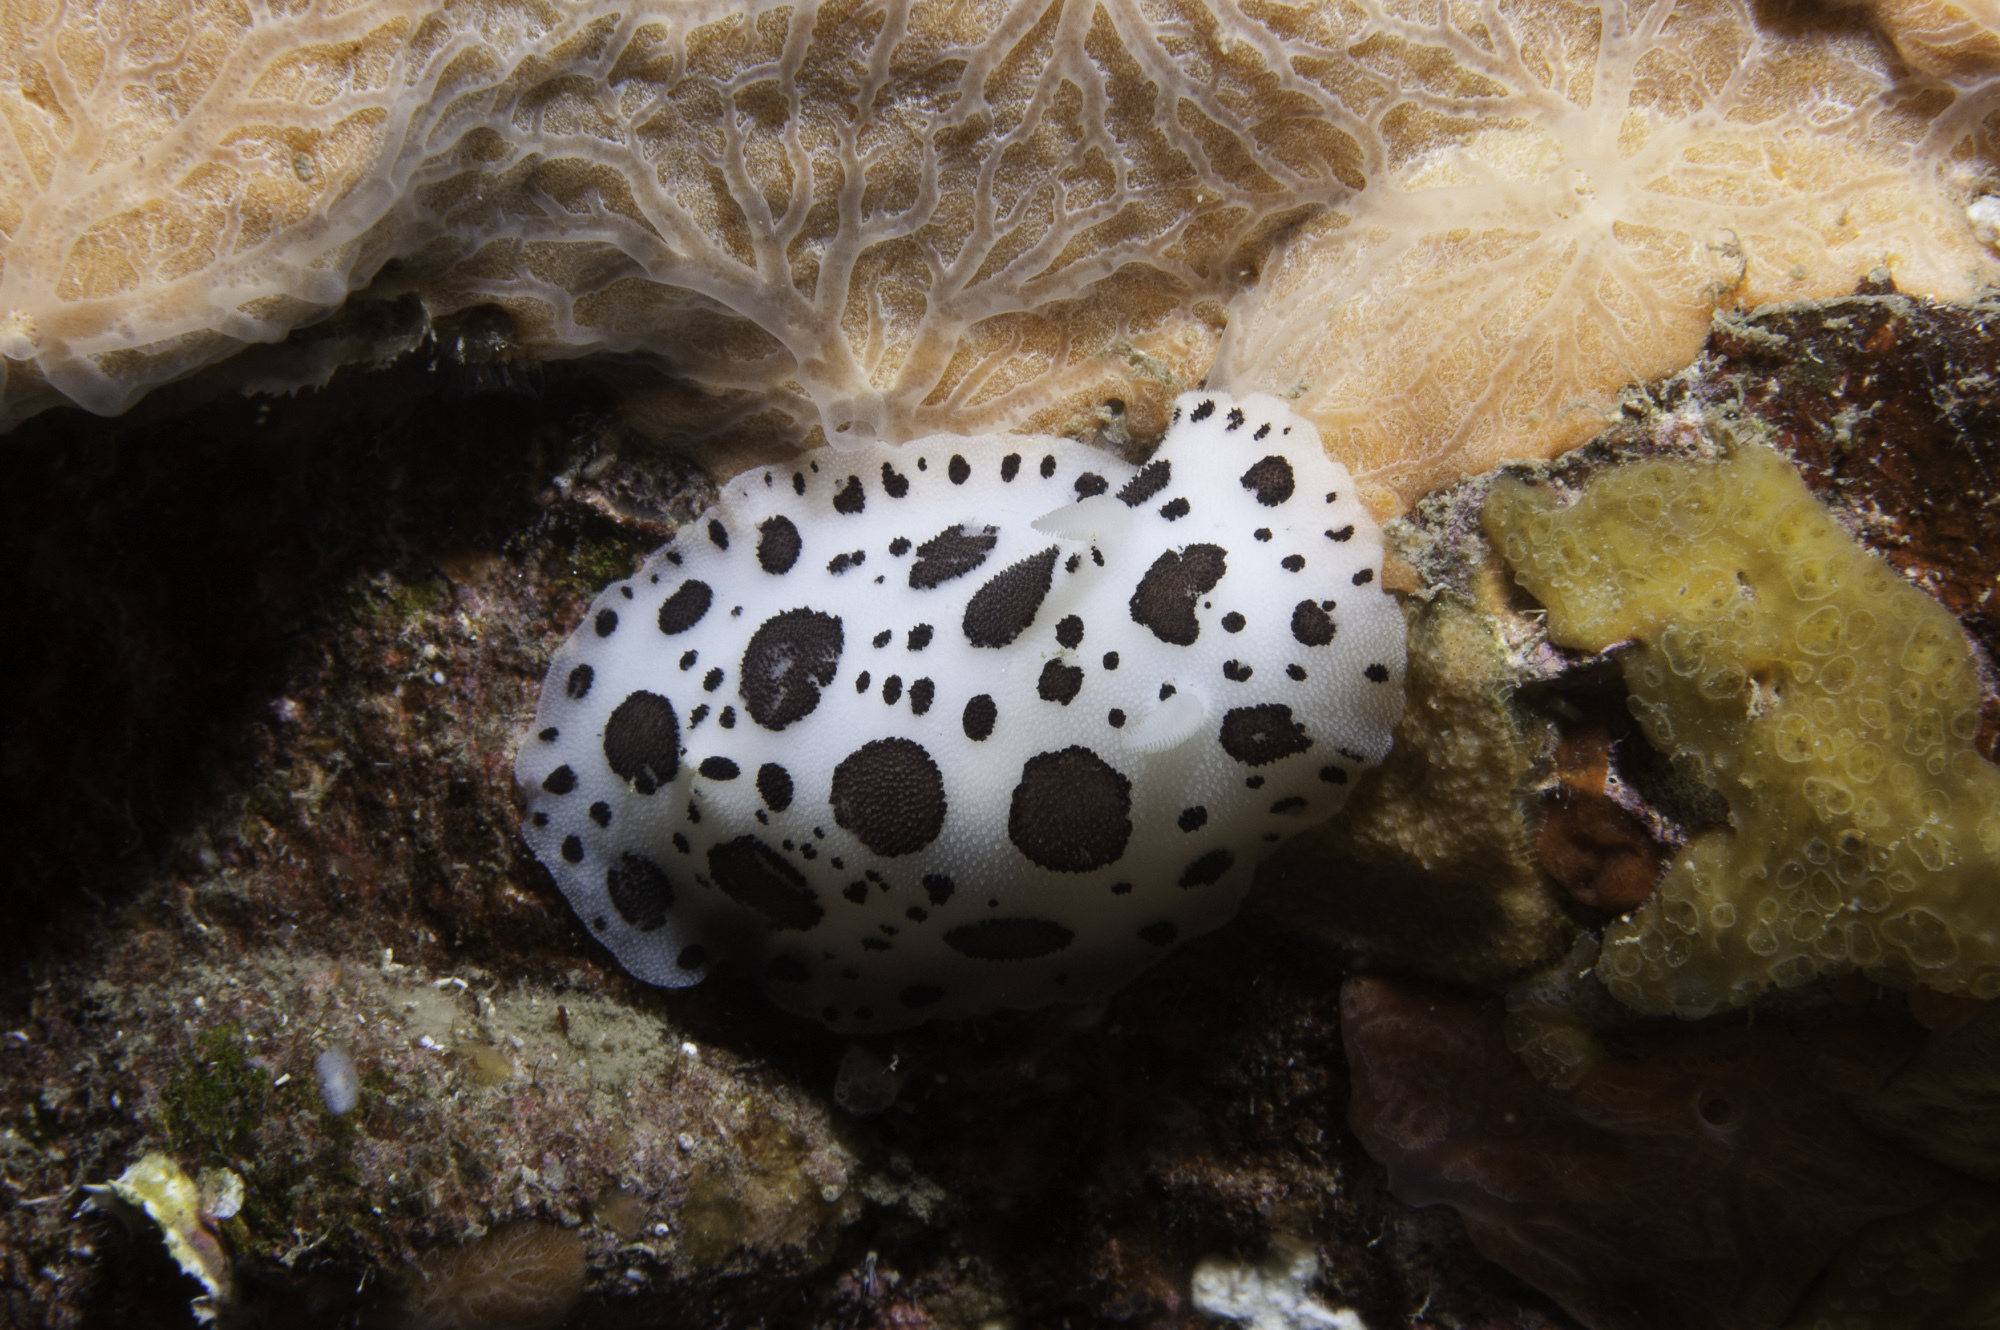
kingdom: Animalia
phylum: Mollusca
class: Gastropoda
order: Nudibranchia
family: Discodorididae
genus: Peltodoris
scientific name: Peltodoris atromaculata
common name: Swiss cow nudibranch
